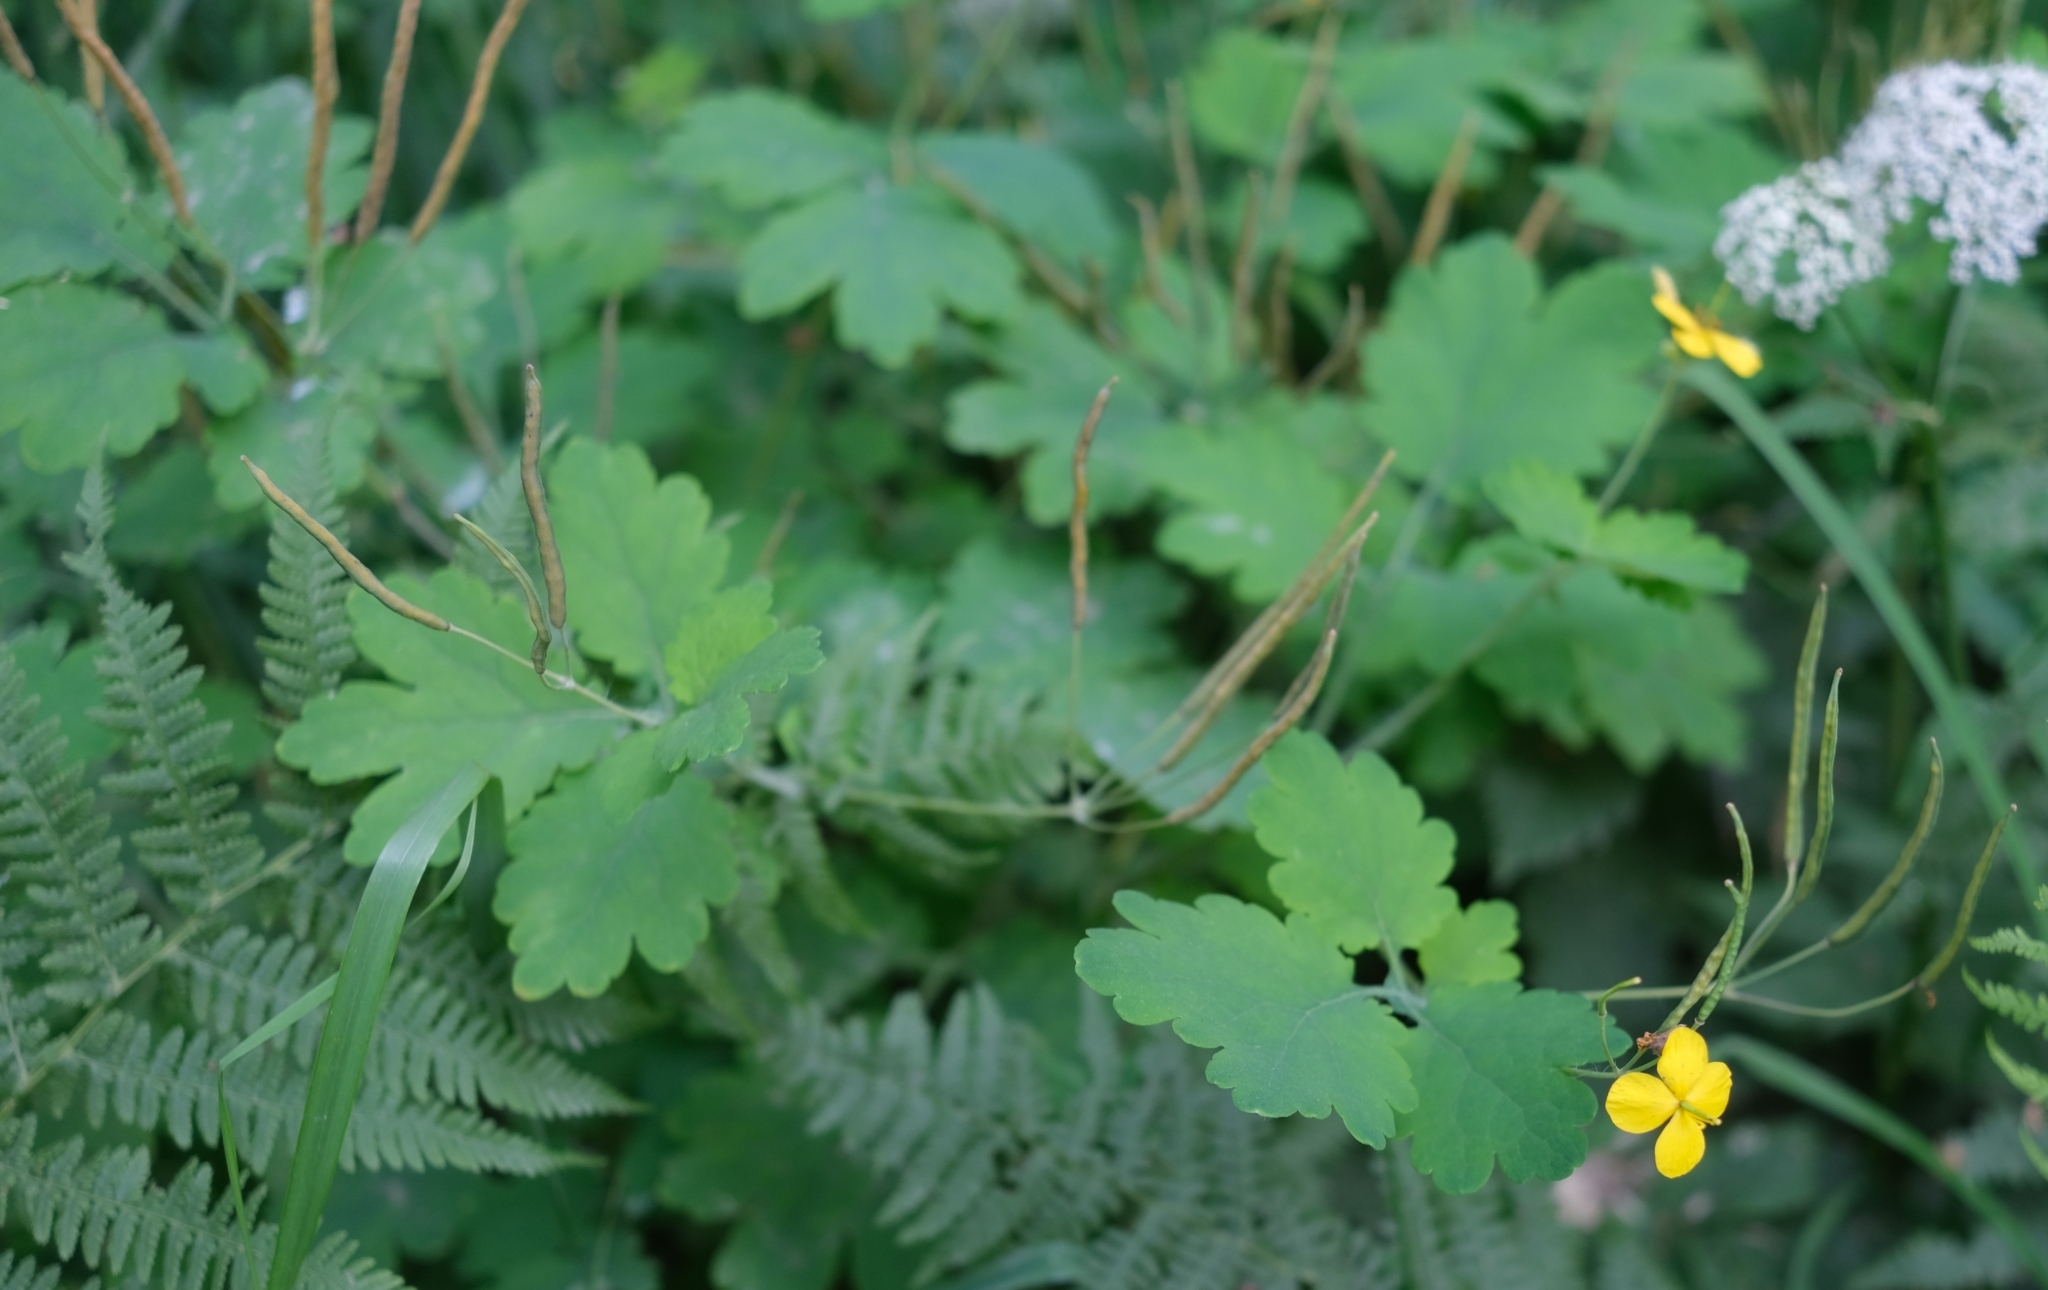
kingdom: Plantae
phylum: Tracheophyta
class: Magnoliopsida
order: Ranunculales
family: Papaveraceae
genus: Chelidonium
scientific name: Chelidonium majus
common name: Greater celandine
